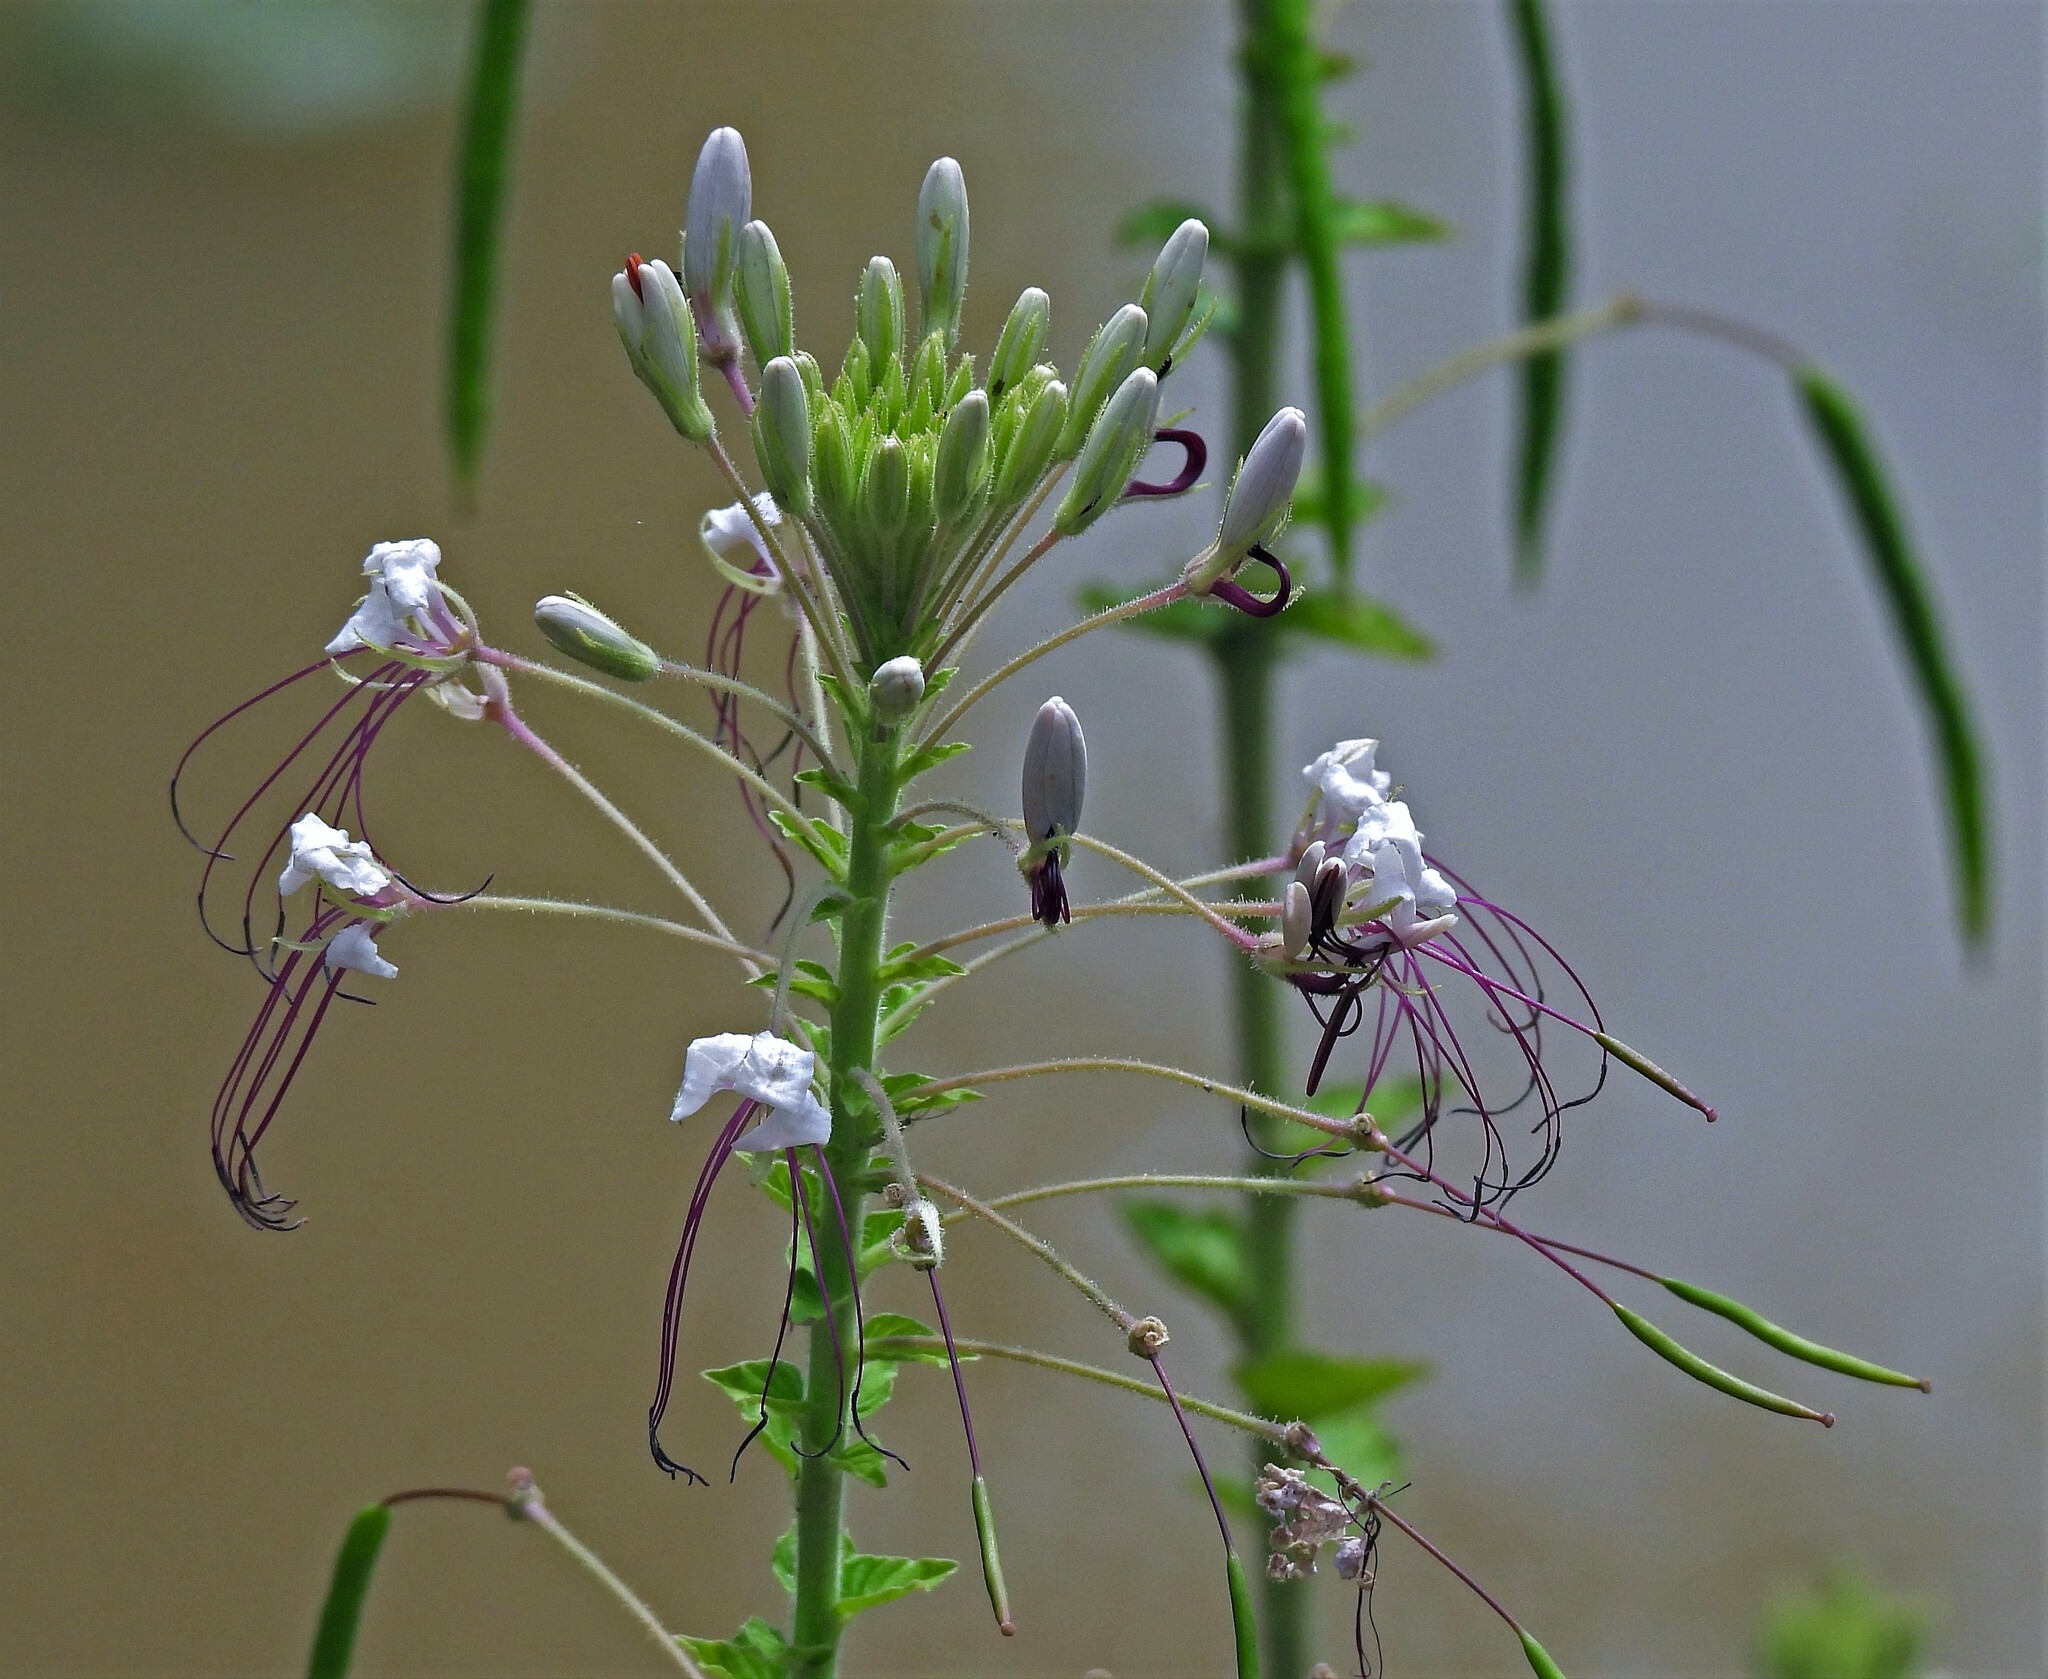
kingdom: Plantae
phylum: Tracheophyta
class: Magnoliopsida
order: Brassicales
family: Cleomaceae
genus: Tarenaya
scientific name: Tarenaya houtteana
